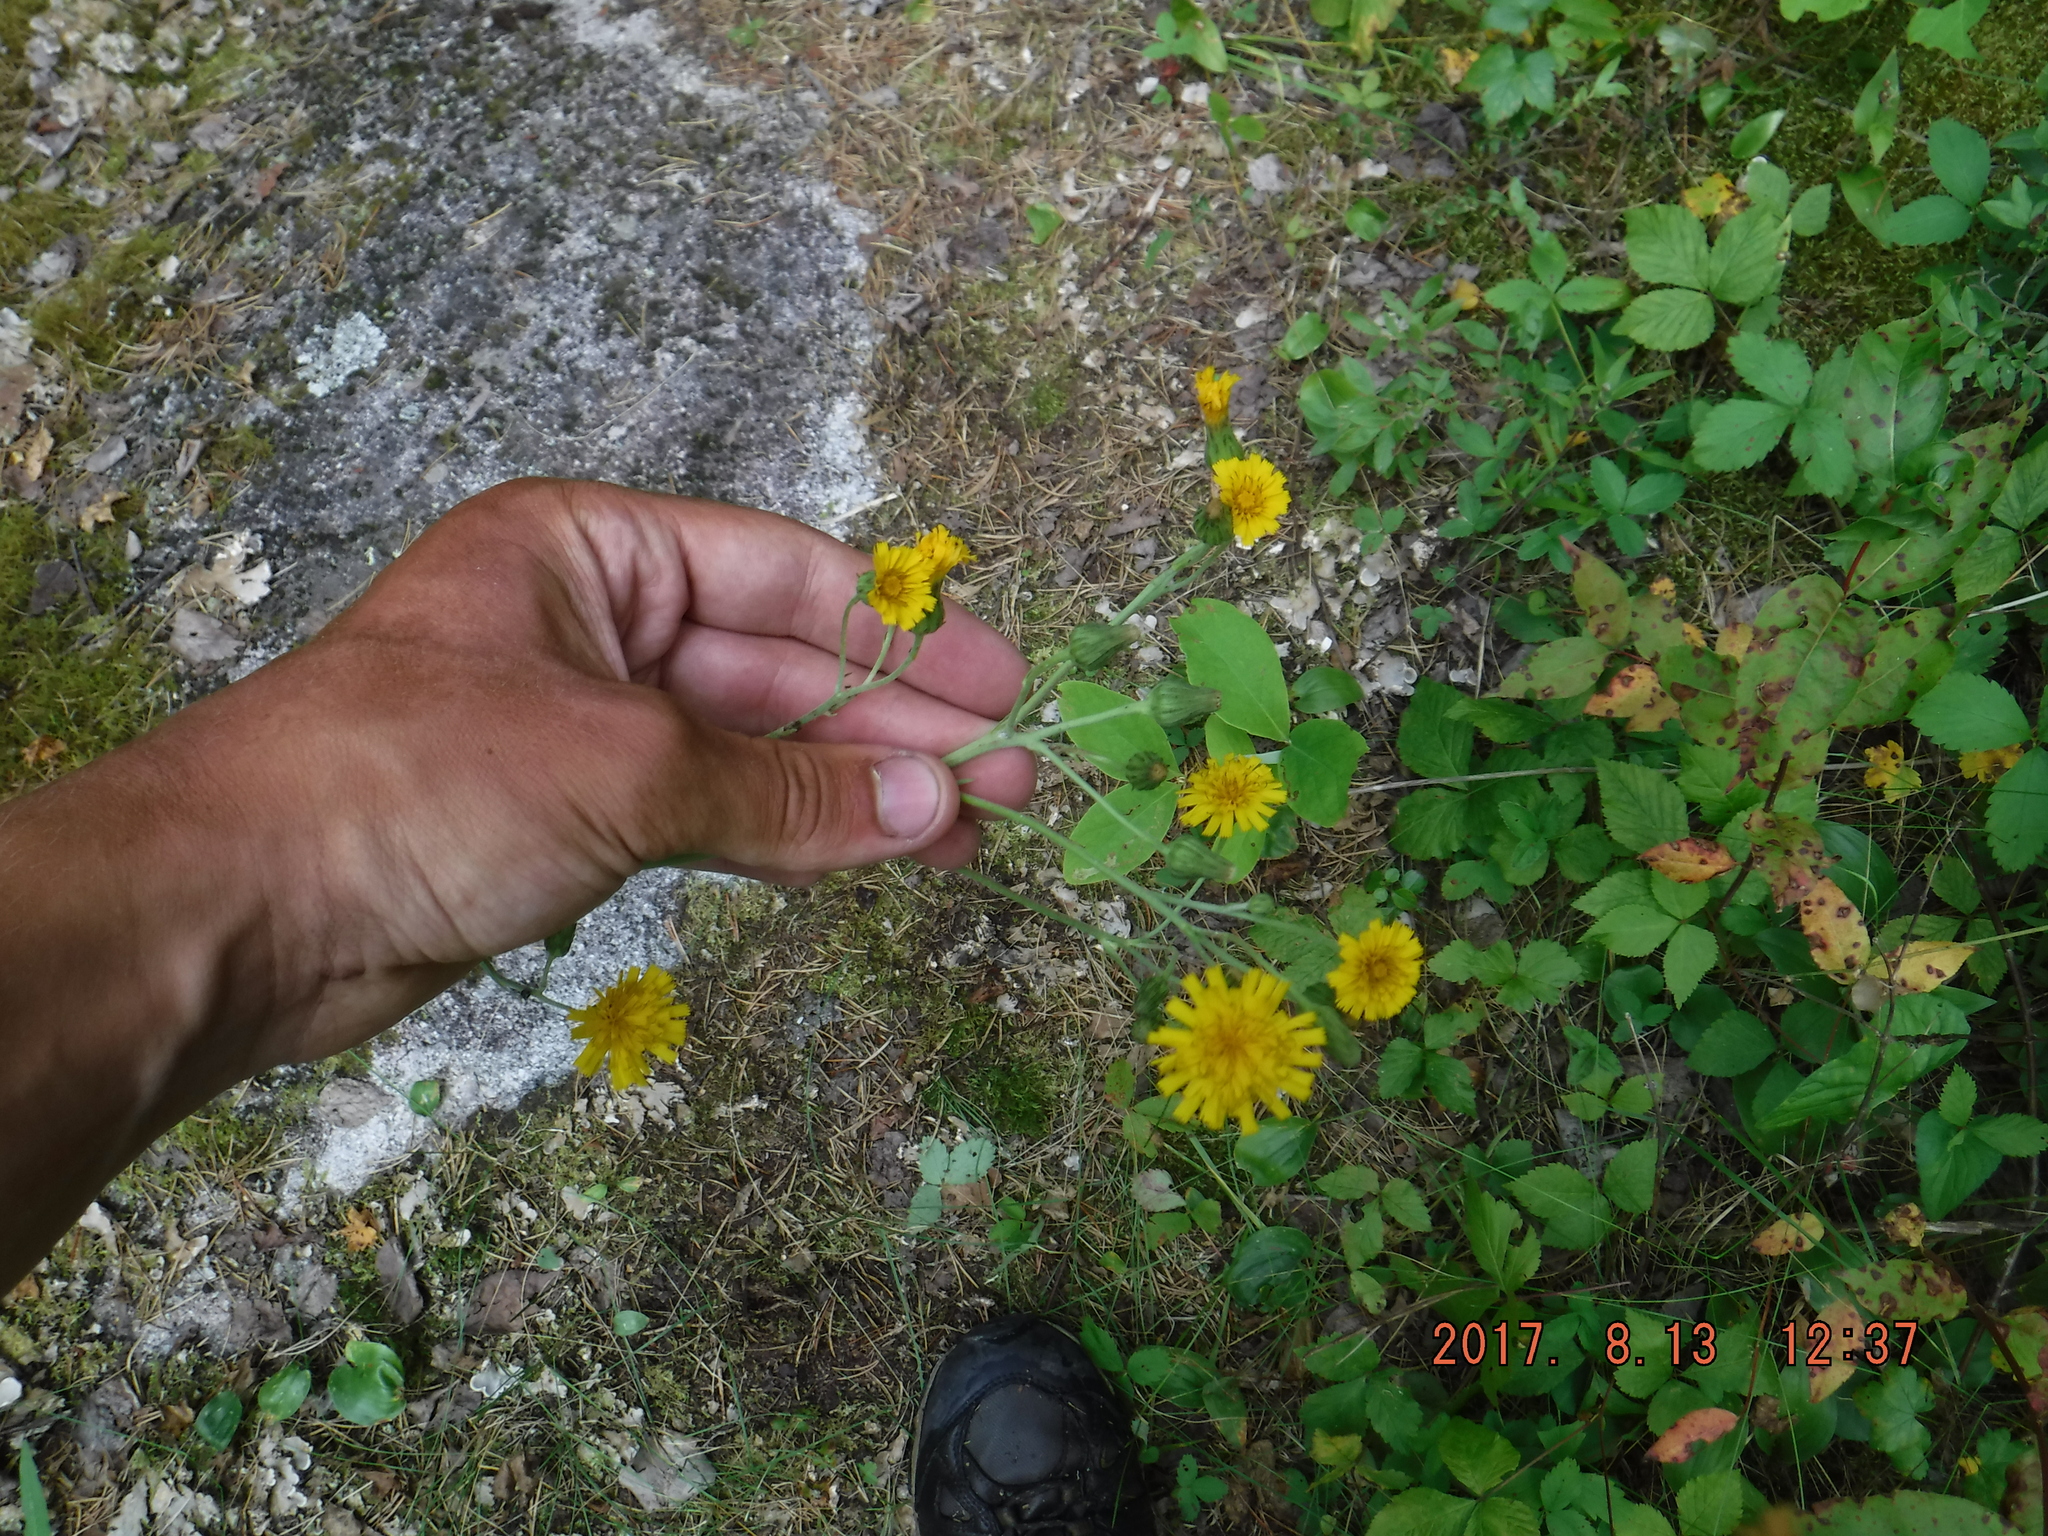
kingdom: Plantae
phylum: Tracheophyta
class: Magnoliopsida
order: Asterales
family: Asteraceae
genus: Hieracium
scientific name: Hieracium umbellatum
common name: Northern hawkweed
